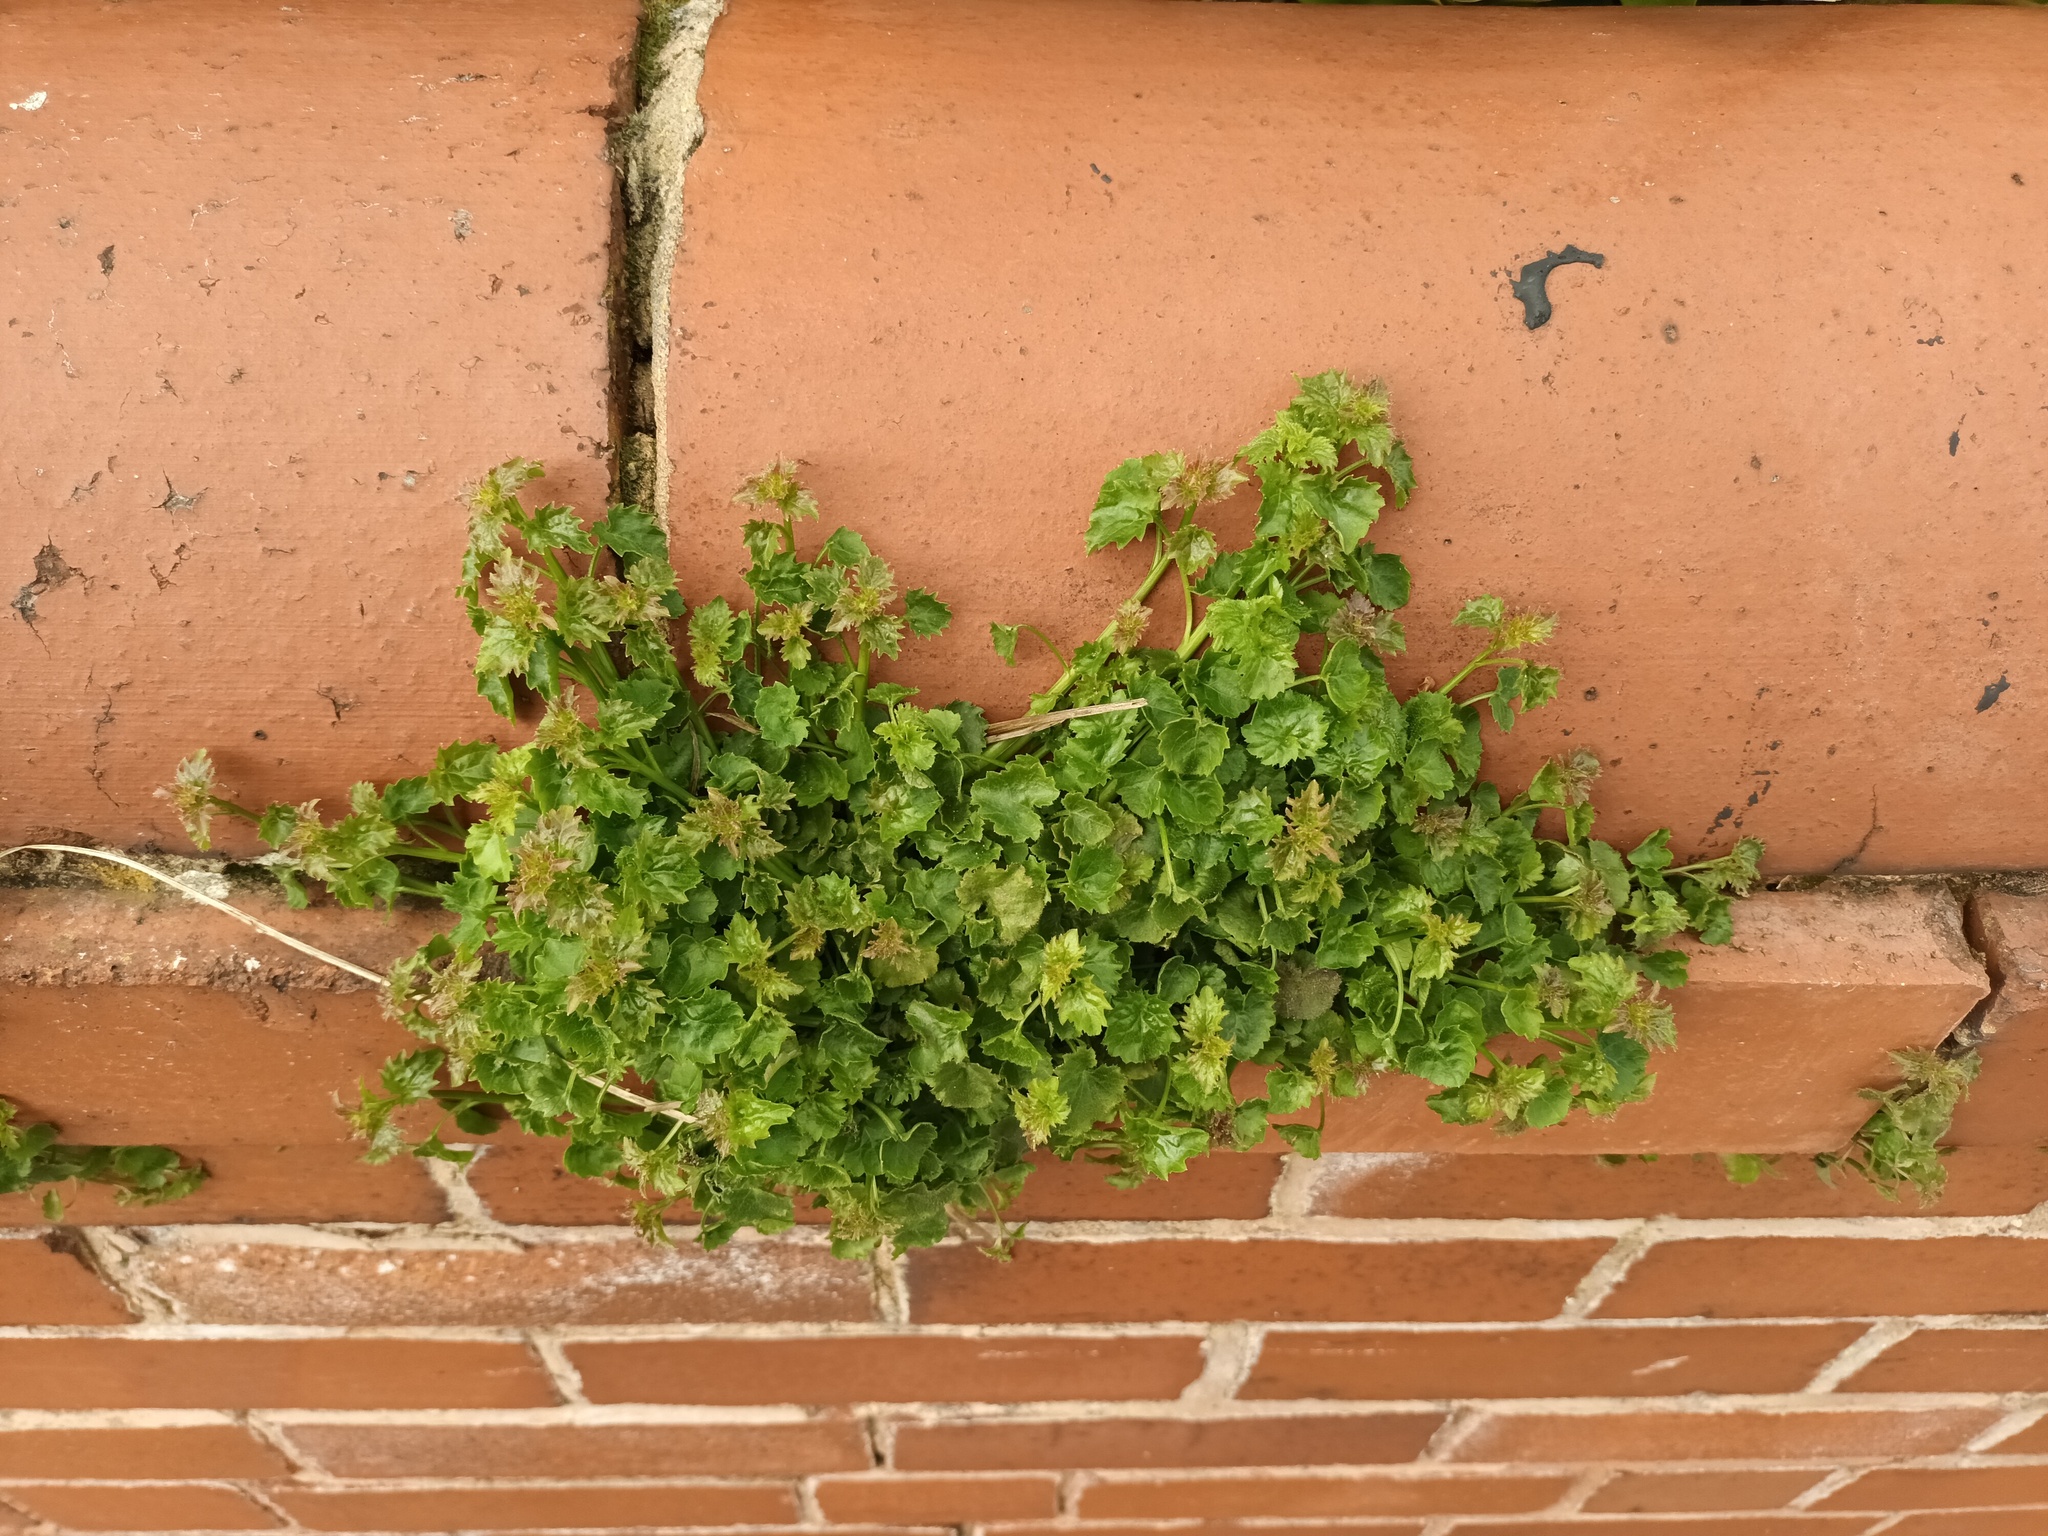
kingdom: Plantae
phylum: Tracheophyta
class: Magnoliopsida
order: Asterales
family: Campanulaceae
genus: Campanula
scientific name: Campanula portenschlagiana
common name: Adria bellflower
